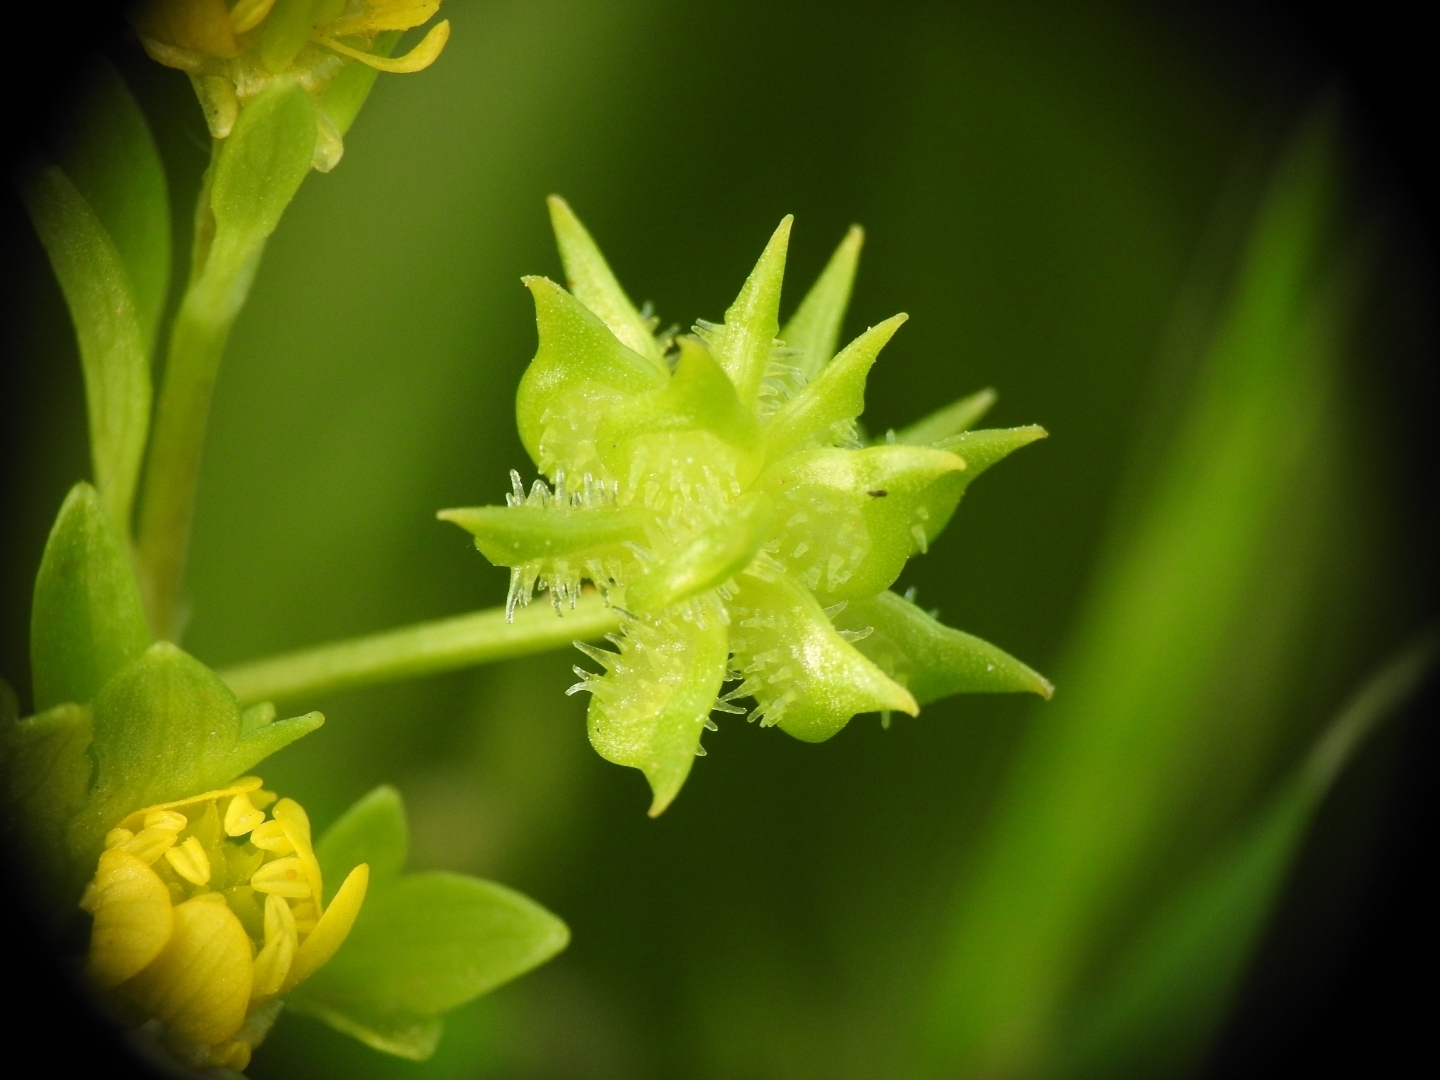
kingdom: Plantae
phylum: Tracheophyta
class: Magnoliopsida
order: Ranunculales
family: Ranunculaceae
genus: Ranunculus
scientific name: Ranunculus muricatus
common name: Rough-fruited buttercup
